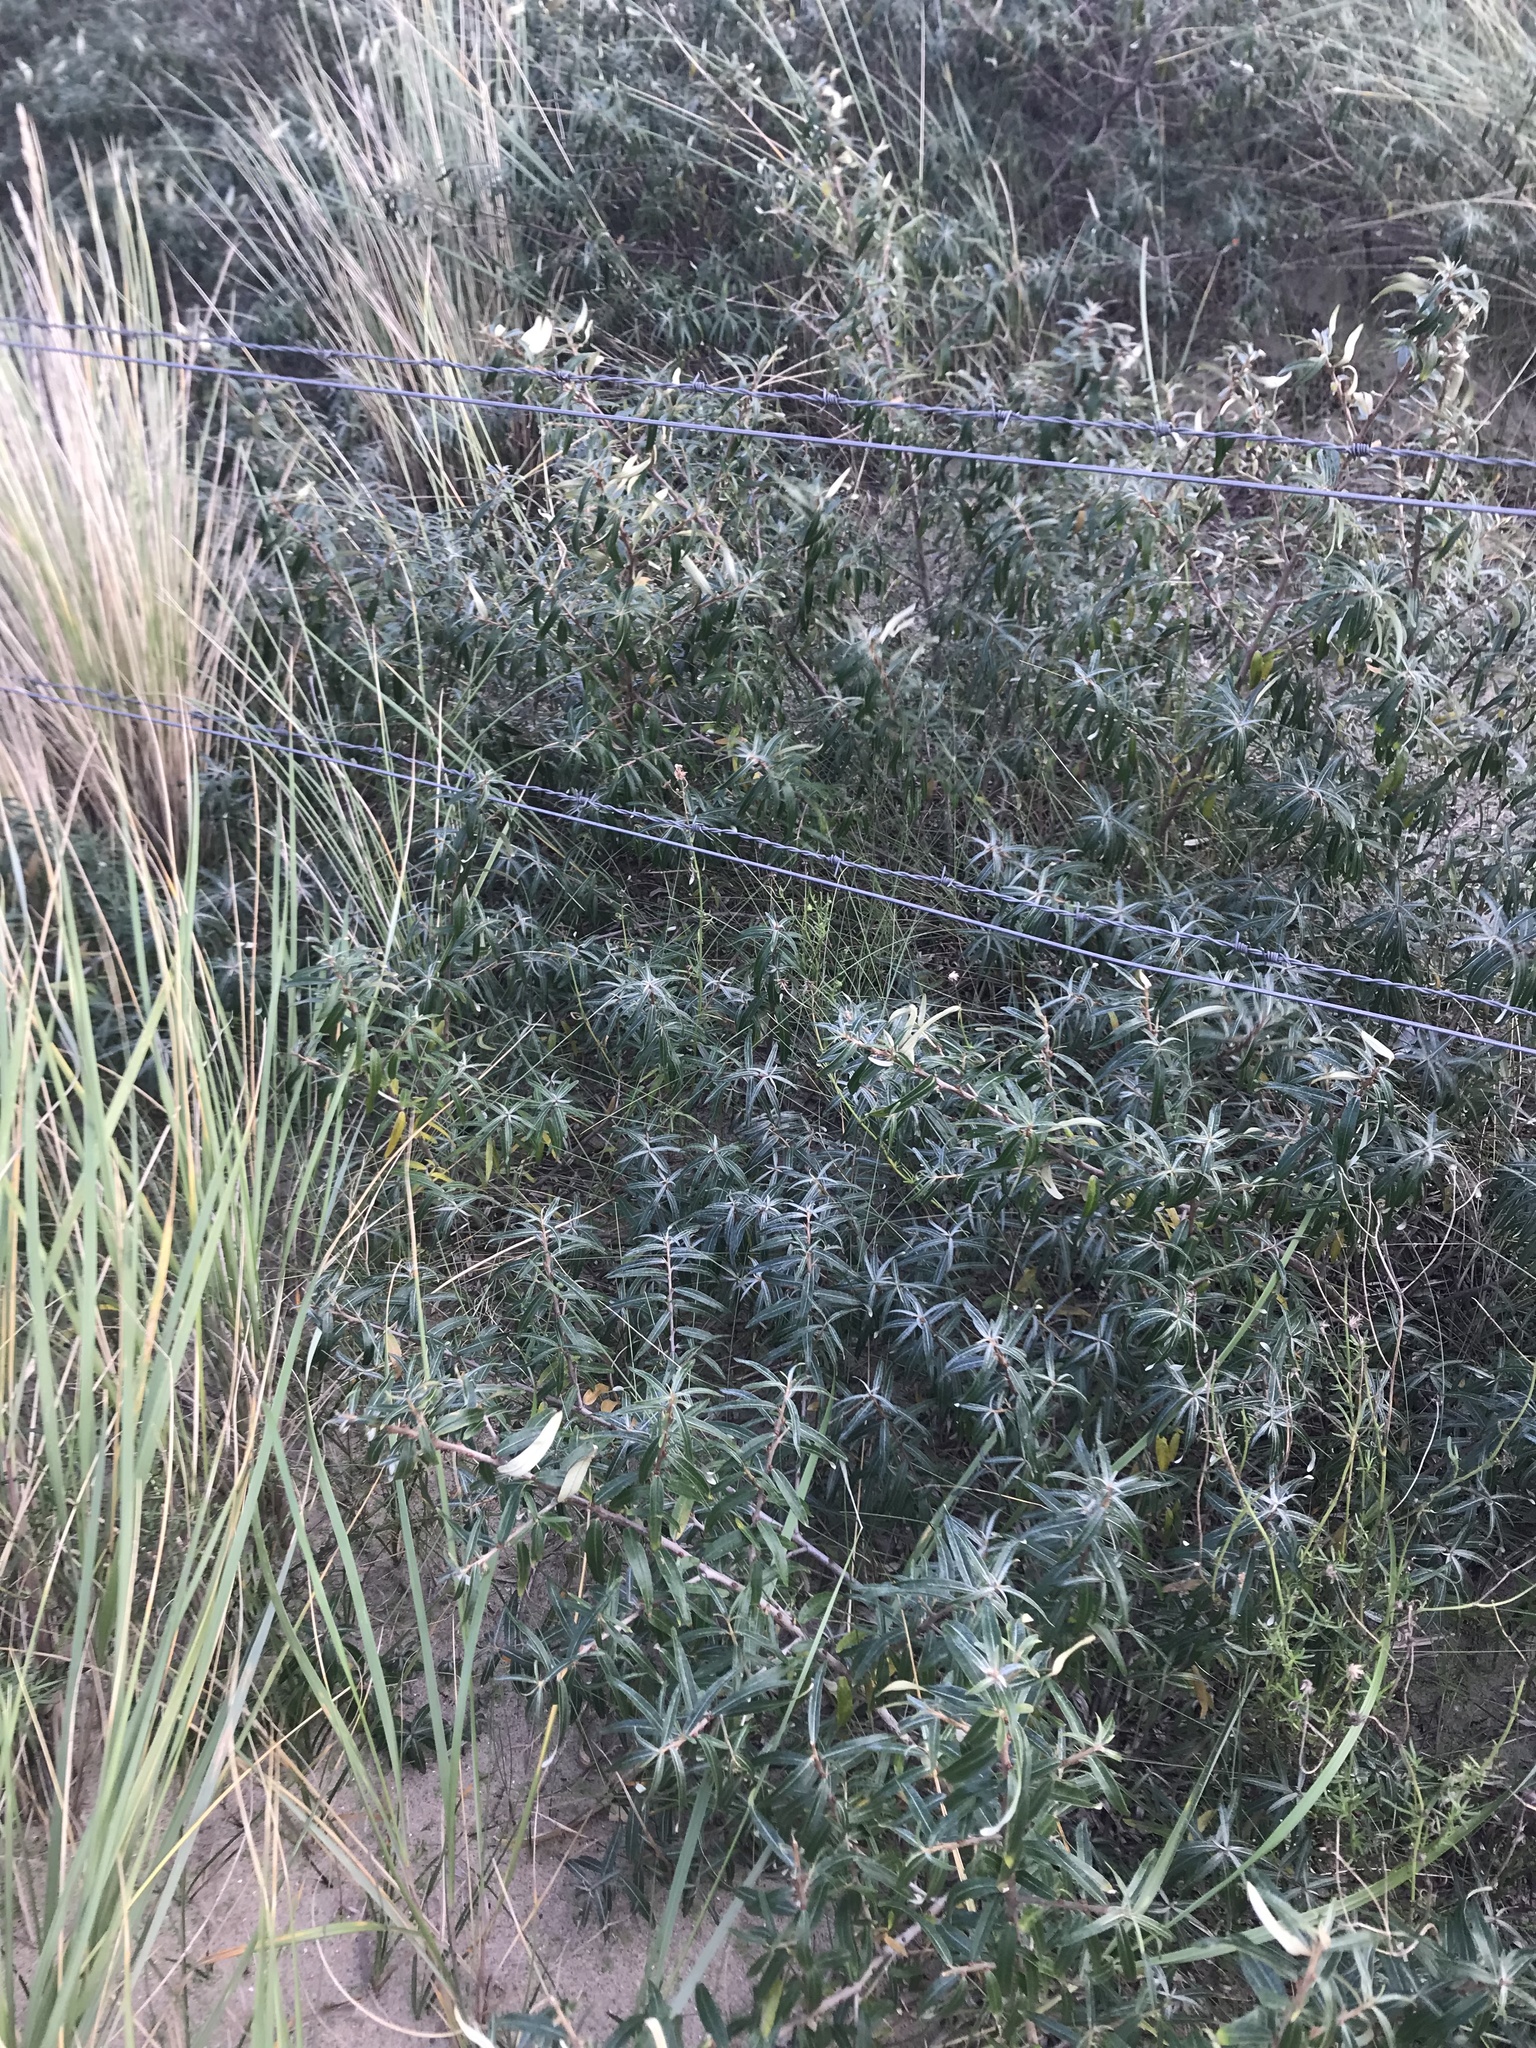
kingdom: Plantae
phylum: Tracheophyta
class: Magnoliopsida
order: Rosales
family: Elaeagnaceae
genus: Hippophae
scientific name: Hippophae rhamnoides
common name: Sea-buckthorn
